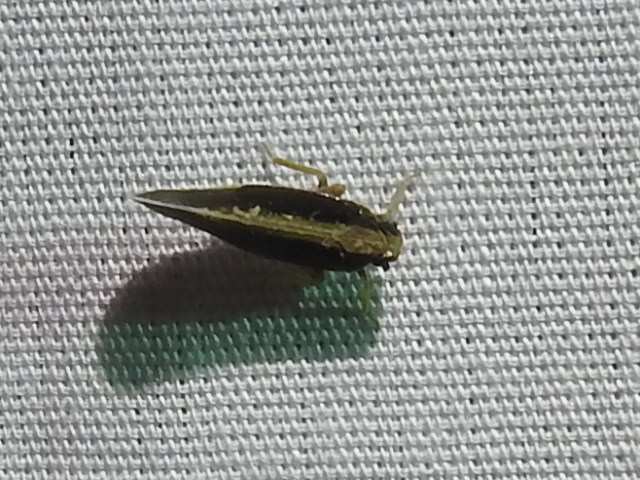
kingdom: Animalia
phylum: Arthropoda
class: Insecta
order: Hemiptera
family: Cixiidae
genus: Pintalia
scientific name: Pintalia delicata
